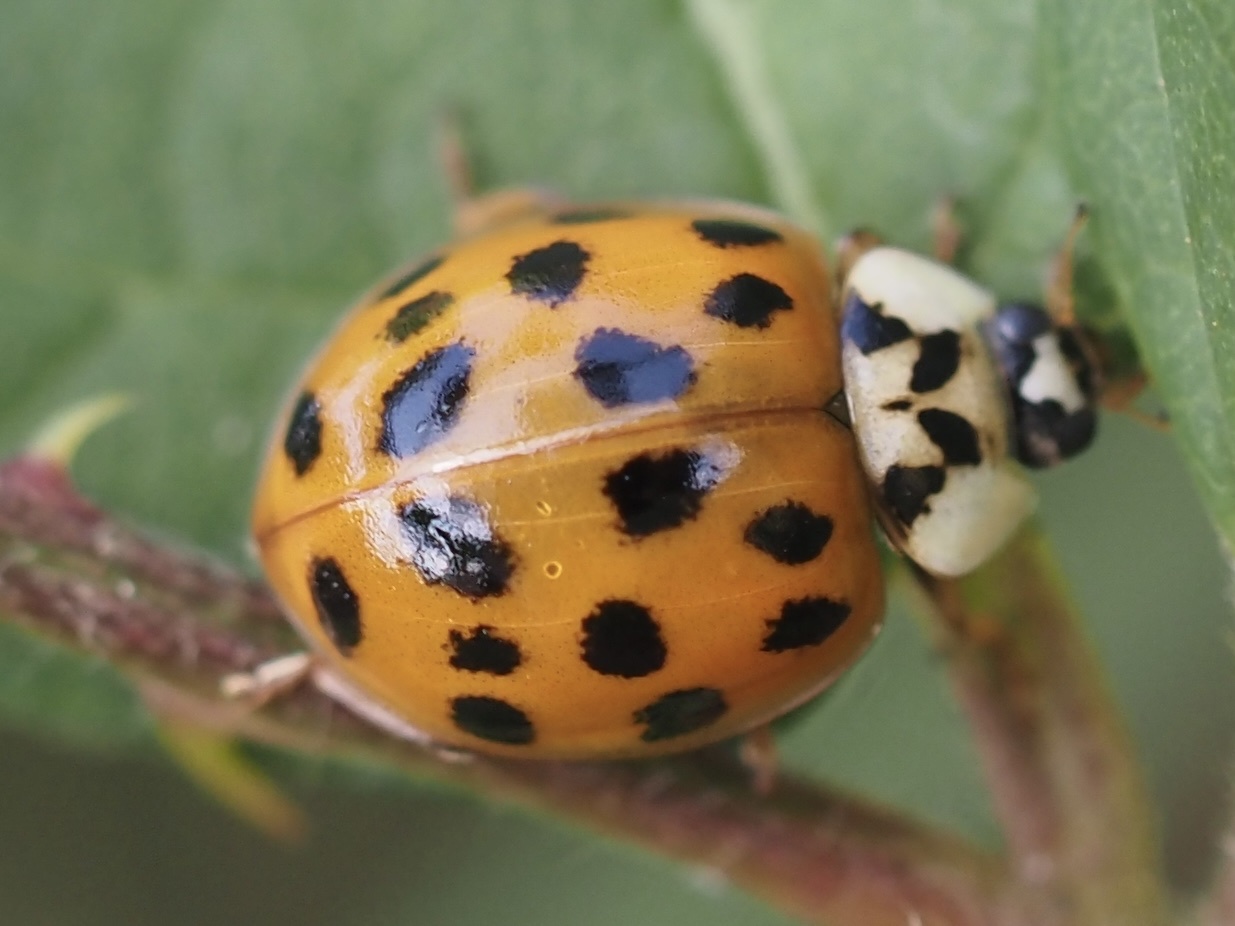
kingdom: Animalia
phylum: Arthropoda
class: Insecta
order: Coleoptera
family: Coccinellidae
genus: Harmonia
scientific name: Harmonia axyridis
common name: Harlequin ladybird
